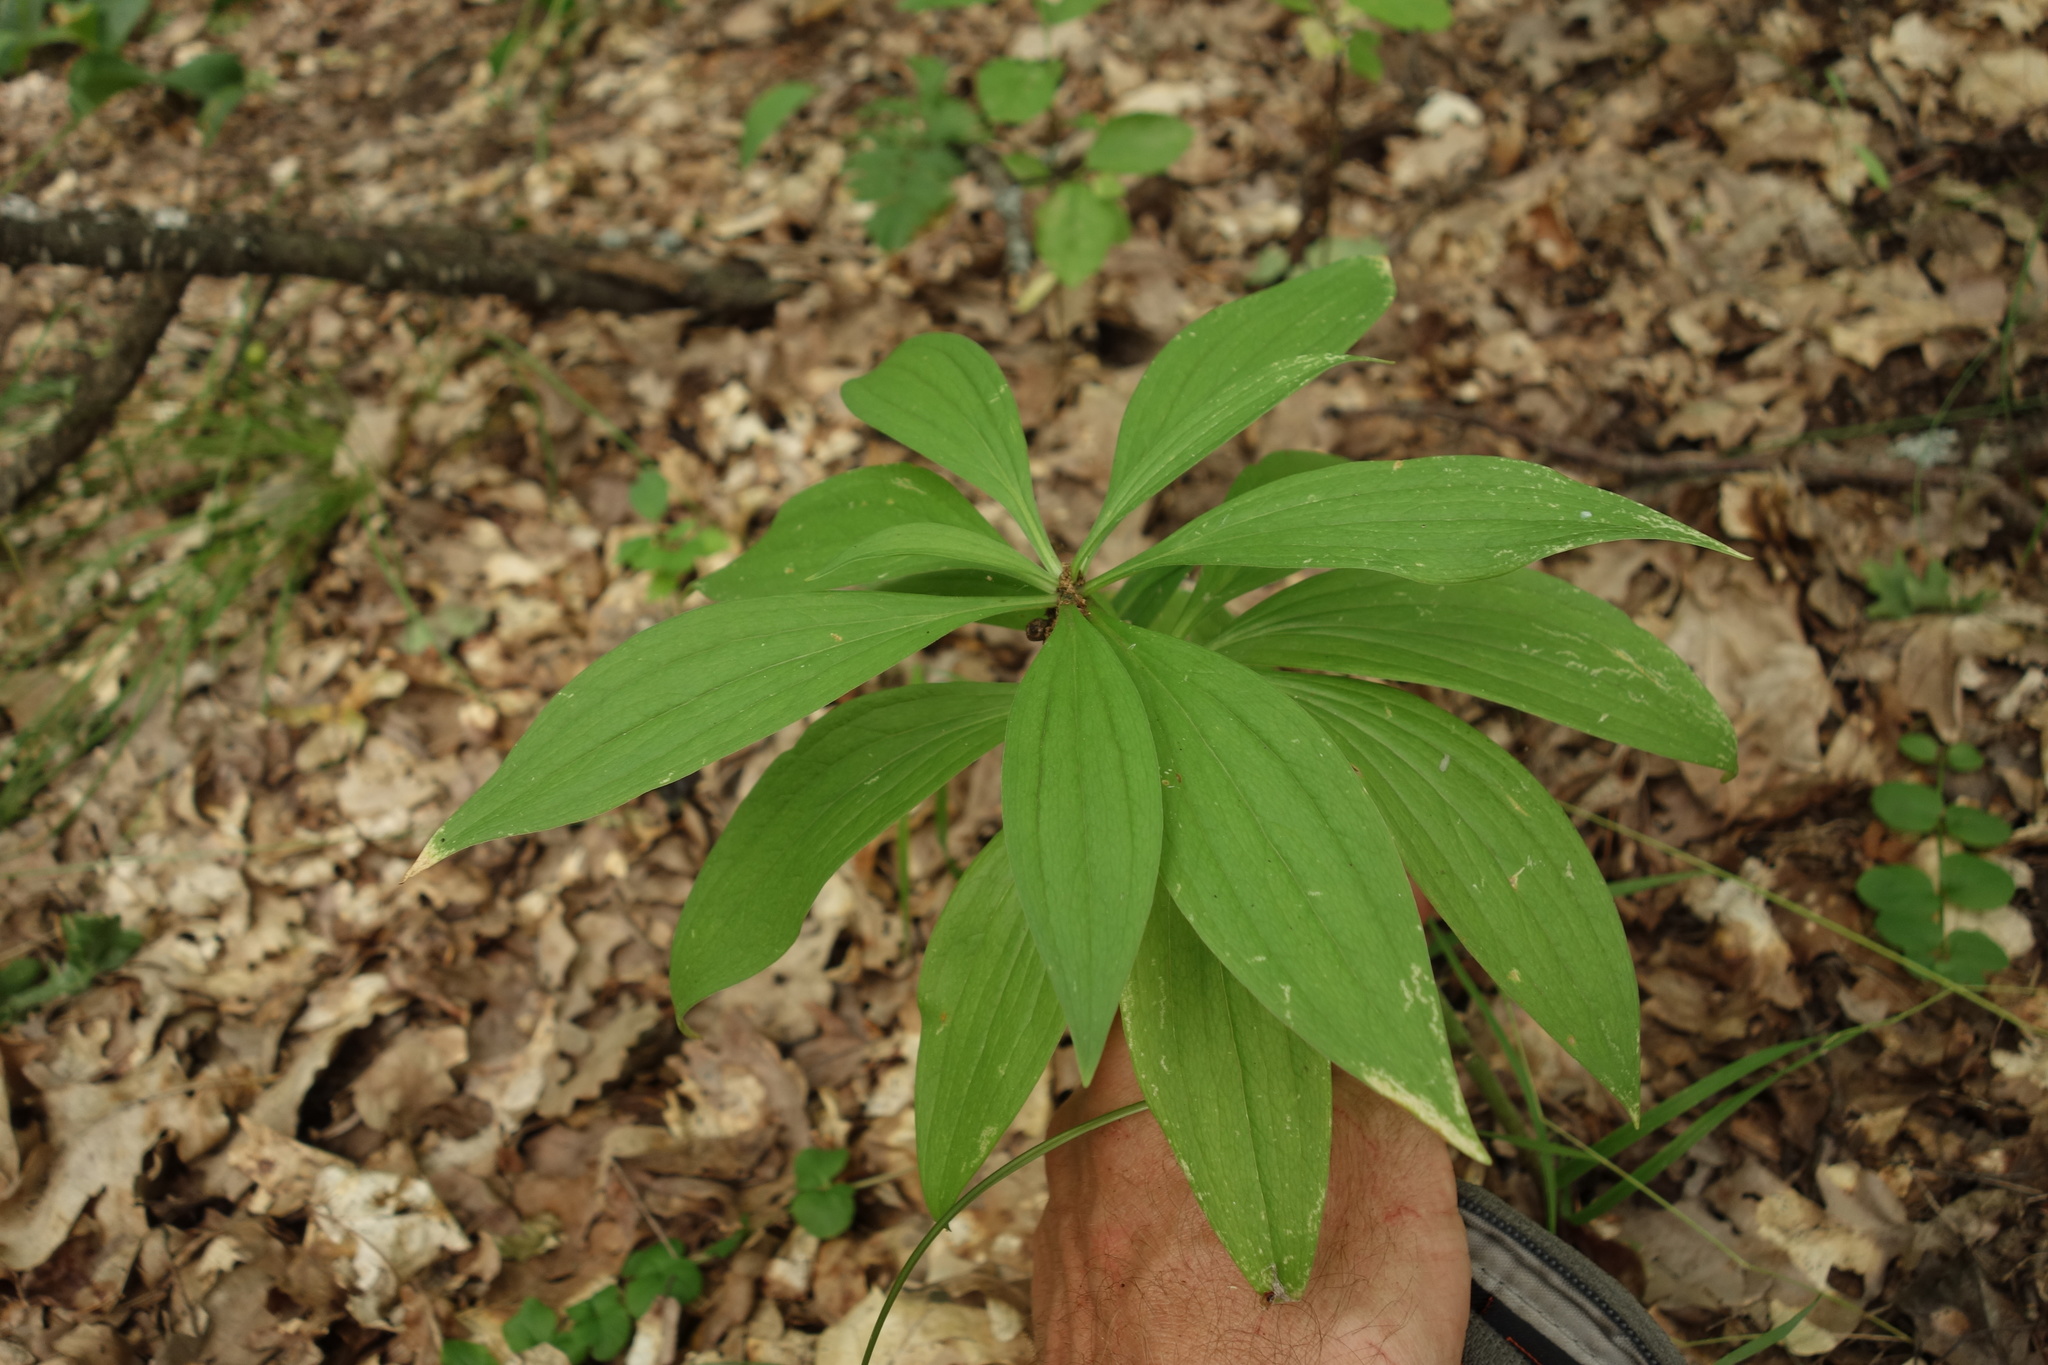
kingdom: Plantae
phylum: Tracheophyta
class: Liliopsida
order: Liliales
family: Liliaceae
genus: Lilium
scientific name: Lilium martagon
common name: Martagon lily
